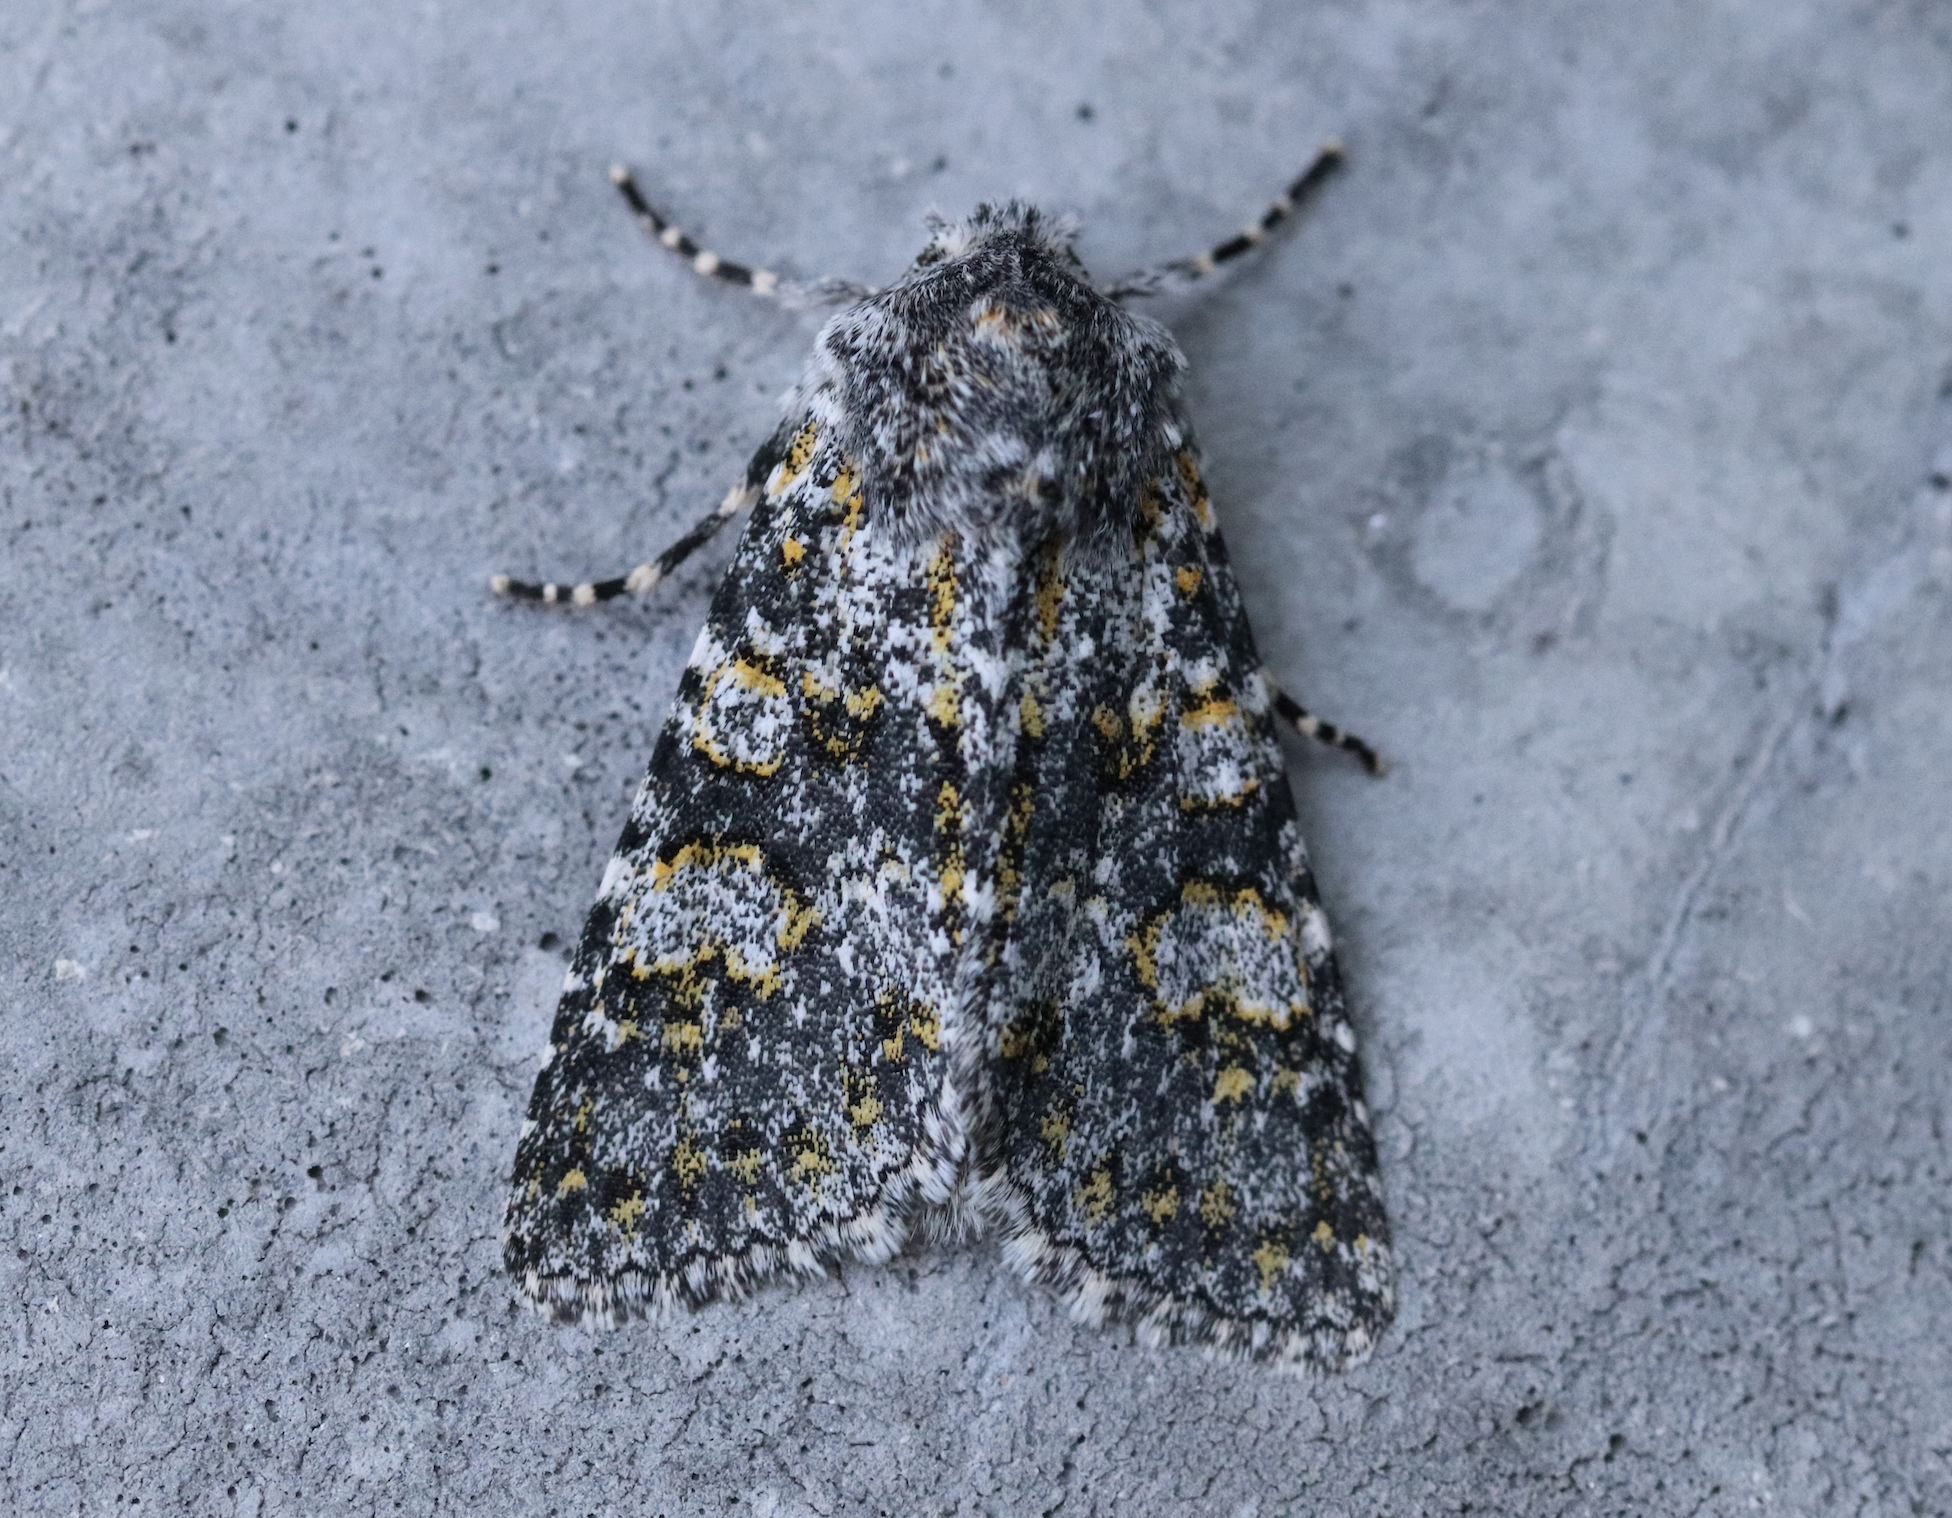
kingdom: Animalia
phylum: Arthropoda
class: Insecta
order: Lepidoptera
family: Noctuidae
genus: Hecatera
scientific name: Hecatera dysodea
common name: Small ranunculus
